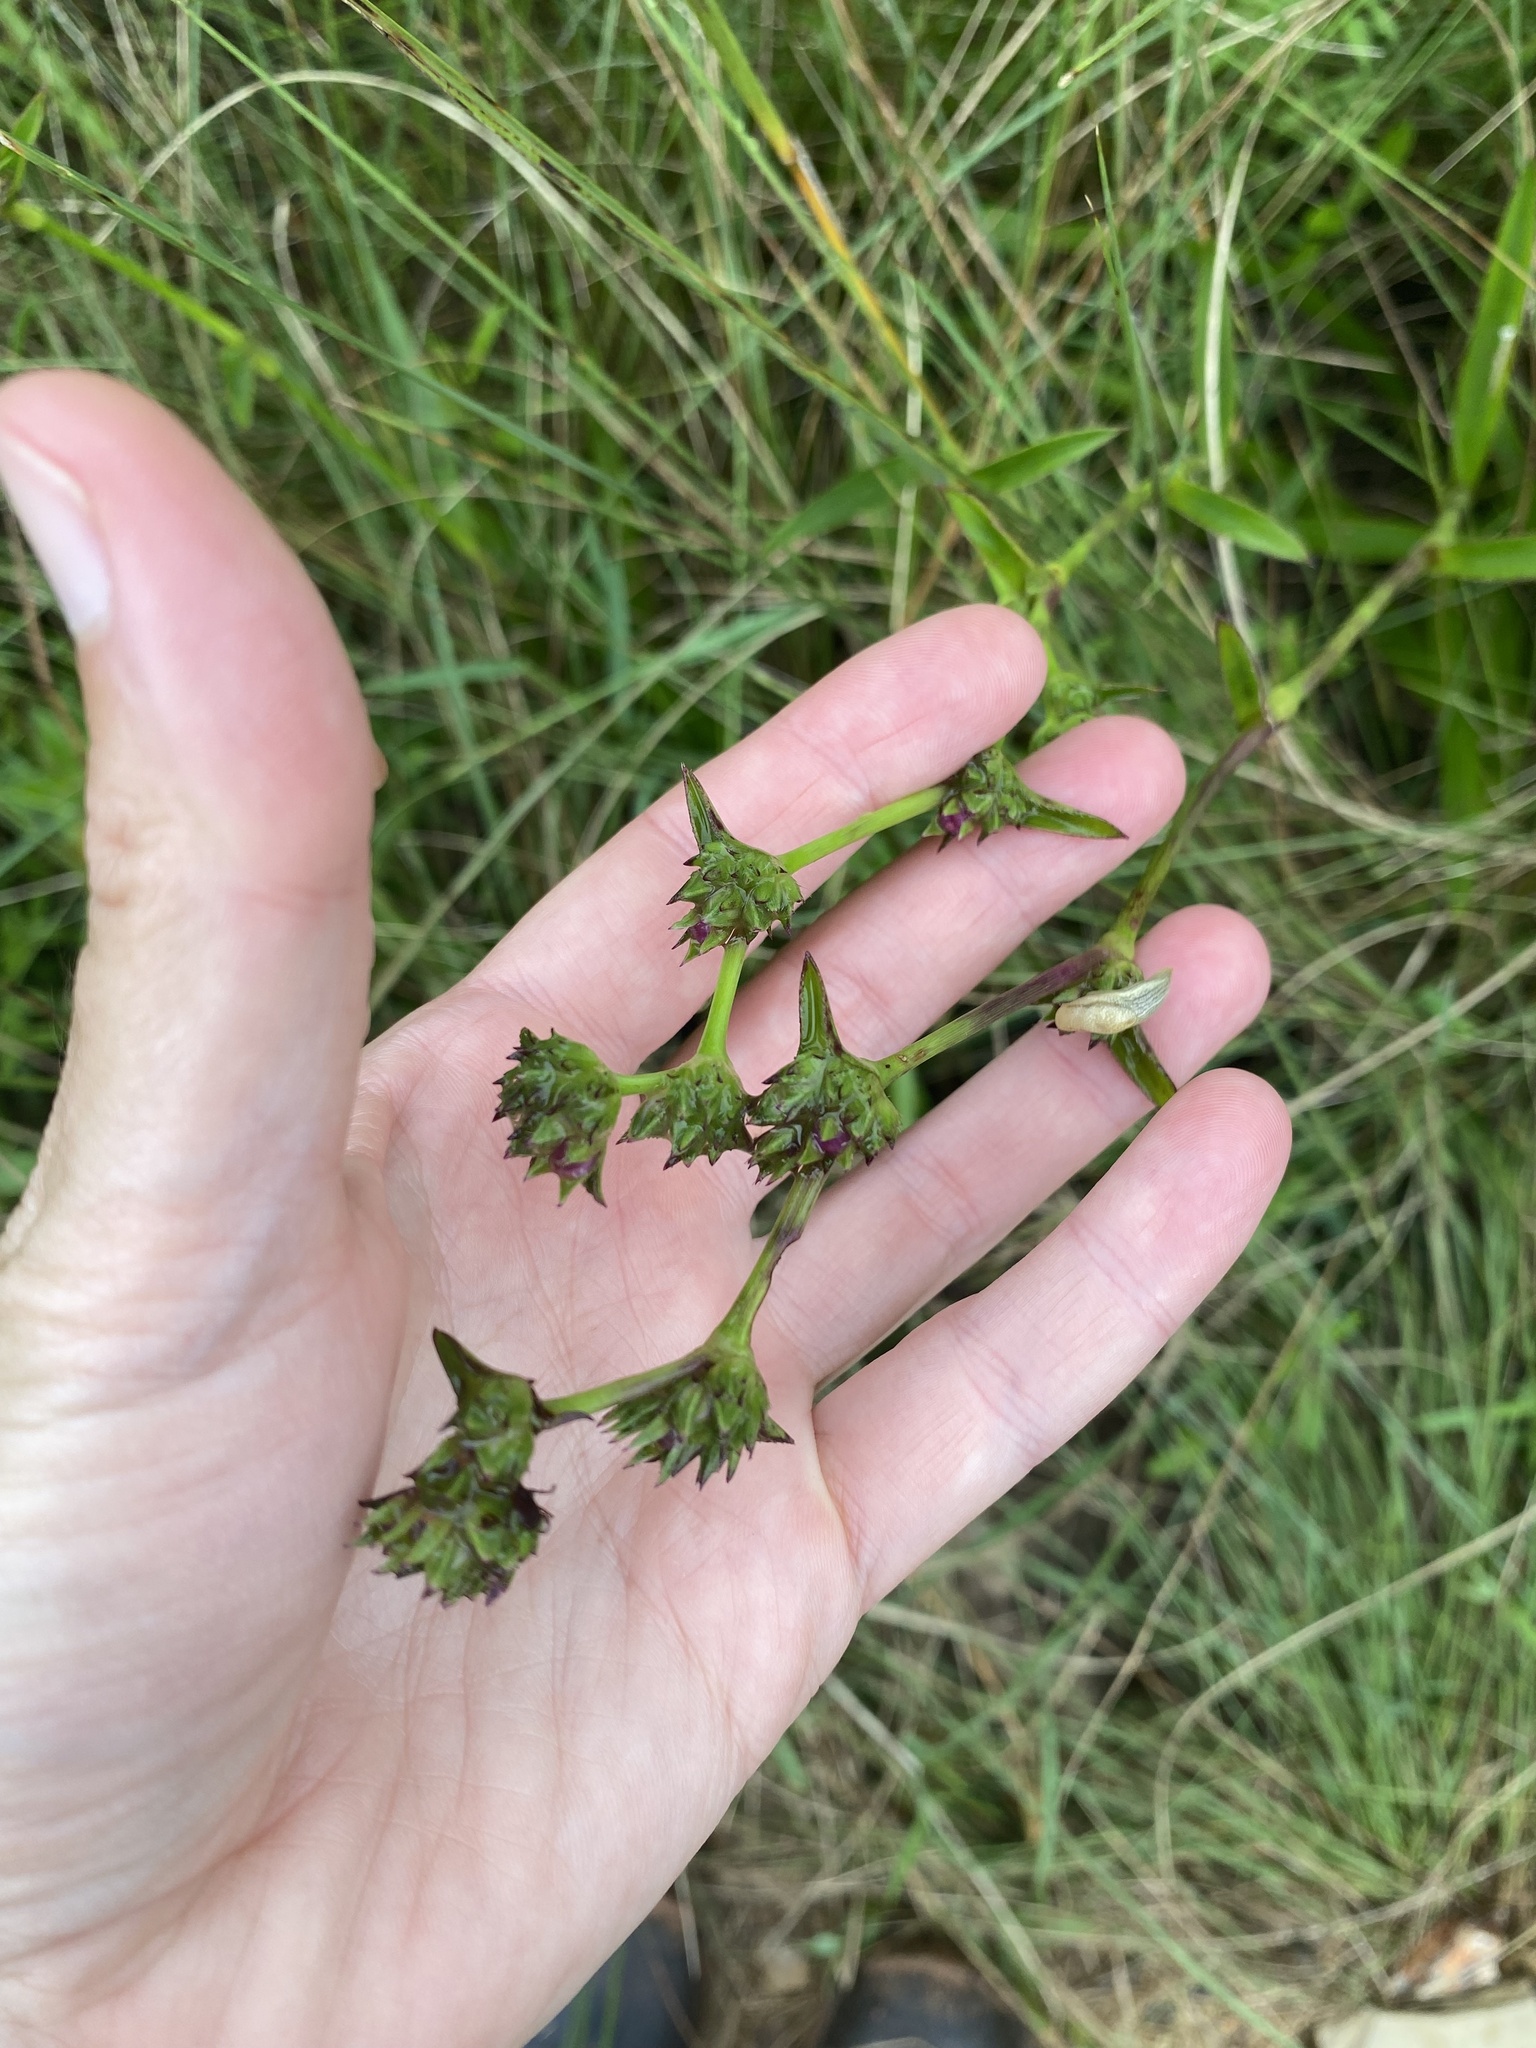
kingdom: Plantae
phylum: Tracheophyta
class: Liliopsida
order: Commelinales
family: Commelinaceae
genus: Cyanotis
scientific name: Cyanotis speciosa
